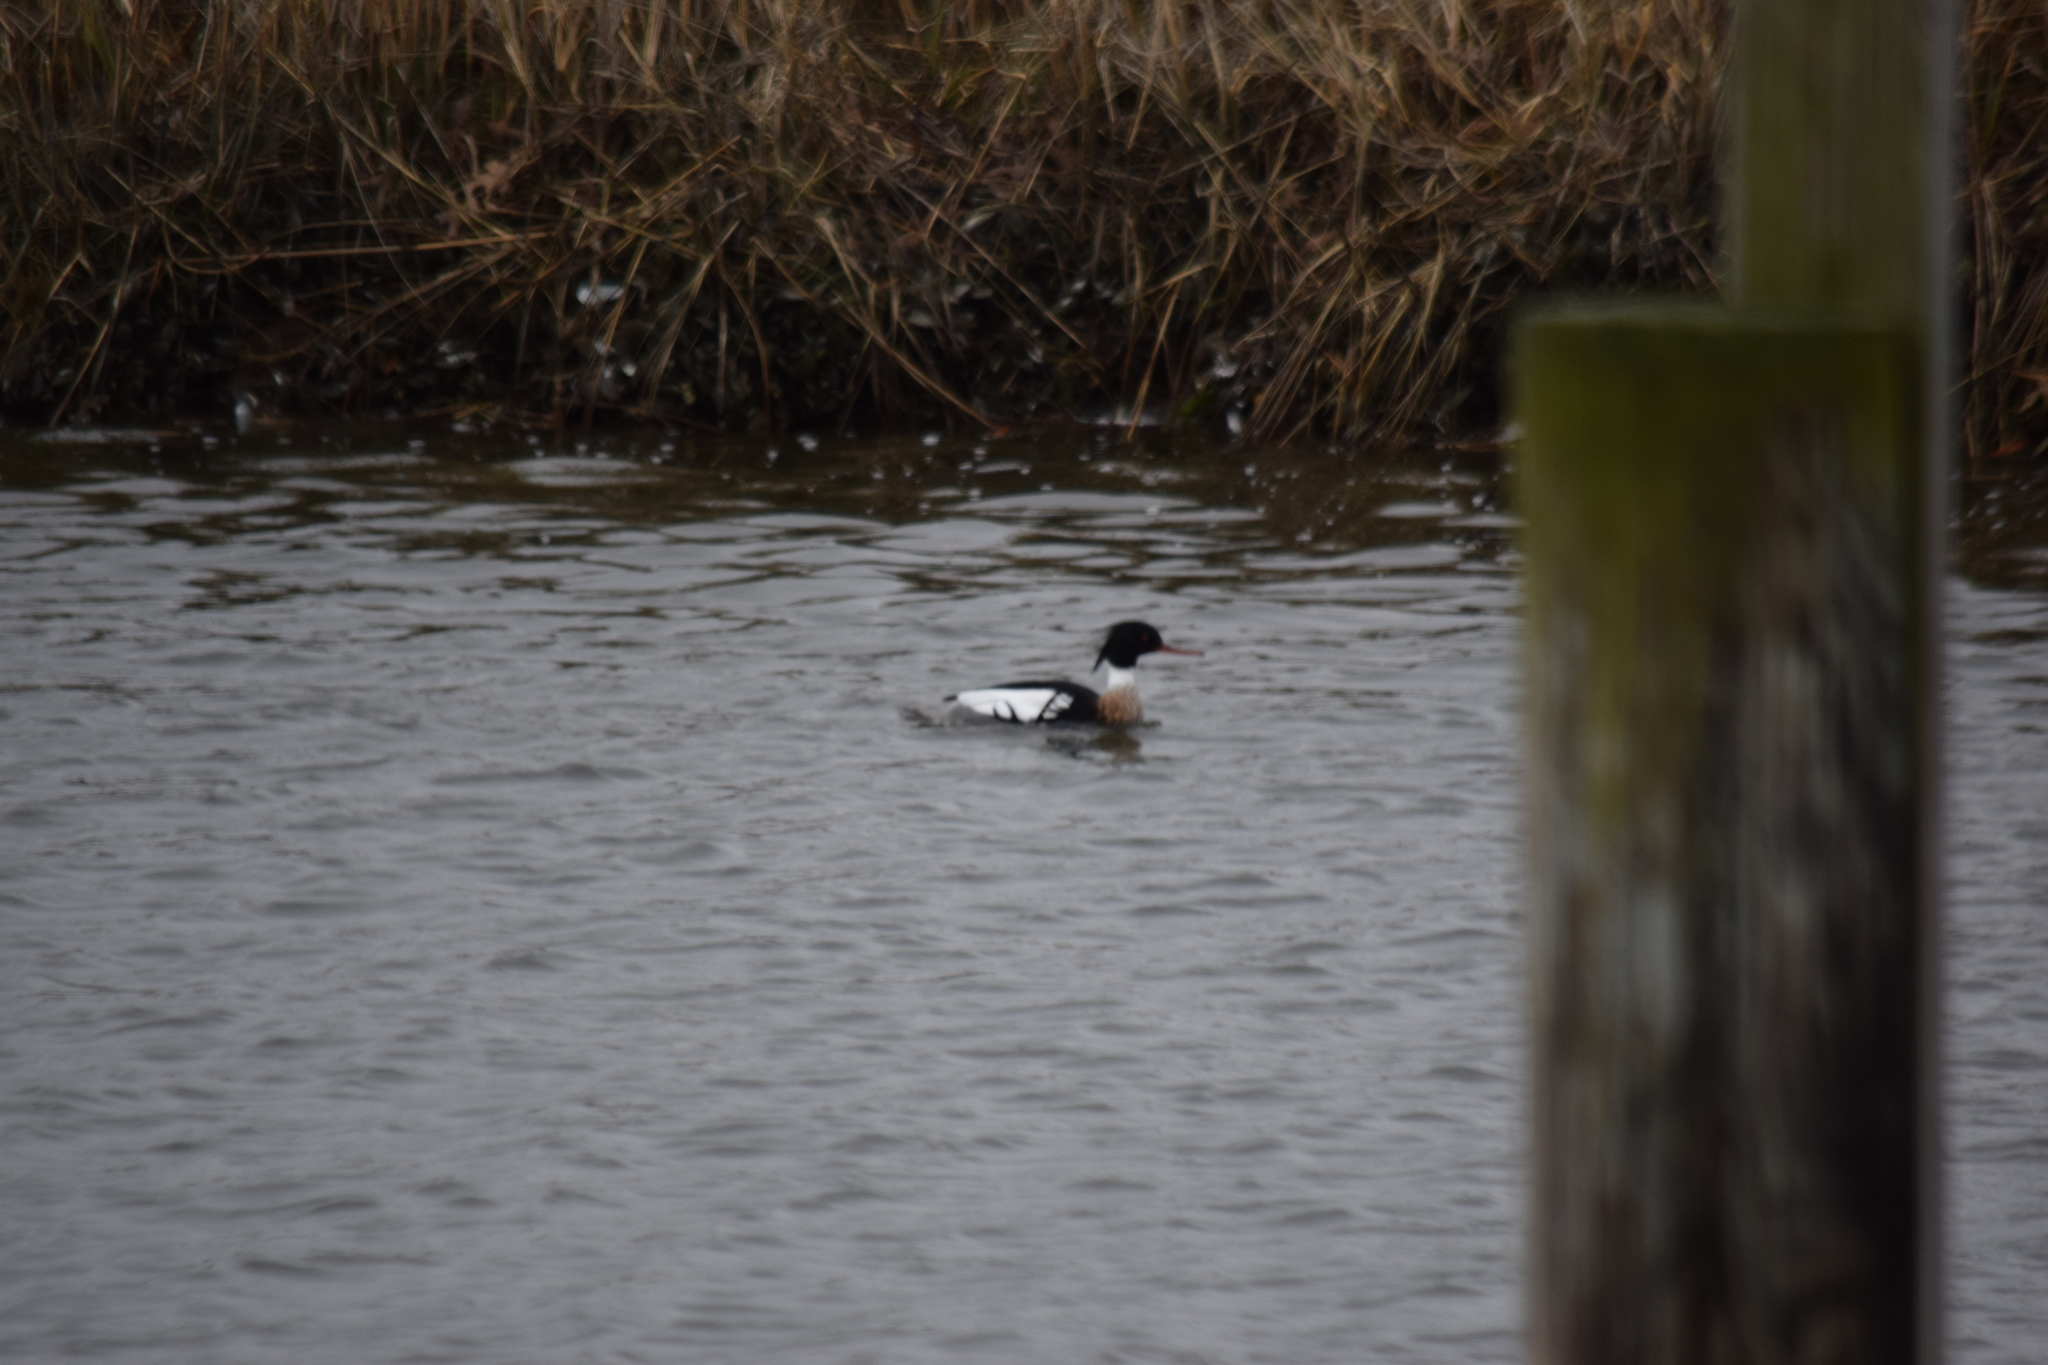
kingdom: Animalia
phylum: Chordata
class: Aves
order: Anseriformes
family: Anatidae
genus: Mergus
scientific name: Mergus serrator
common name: Red-breasted merganser
